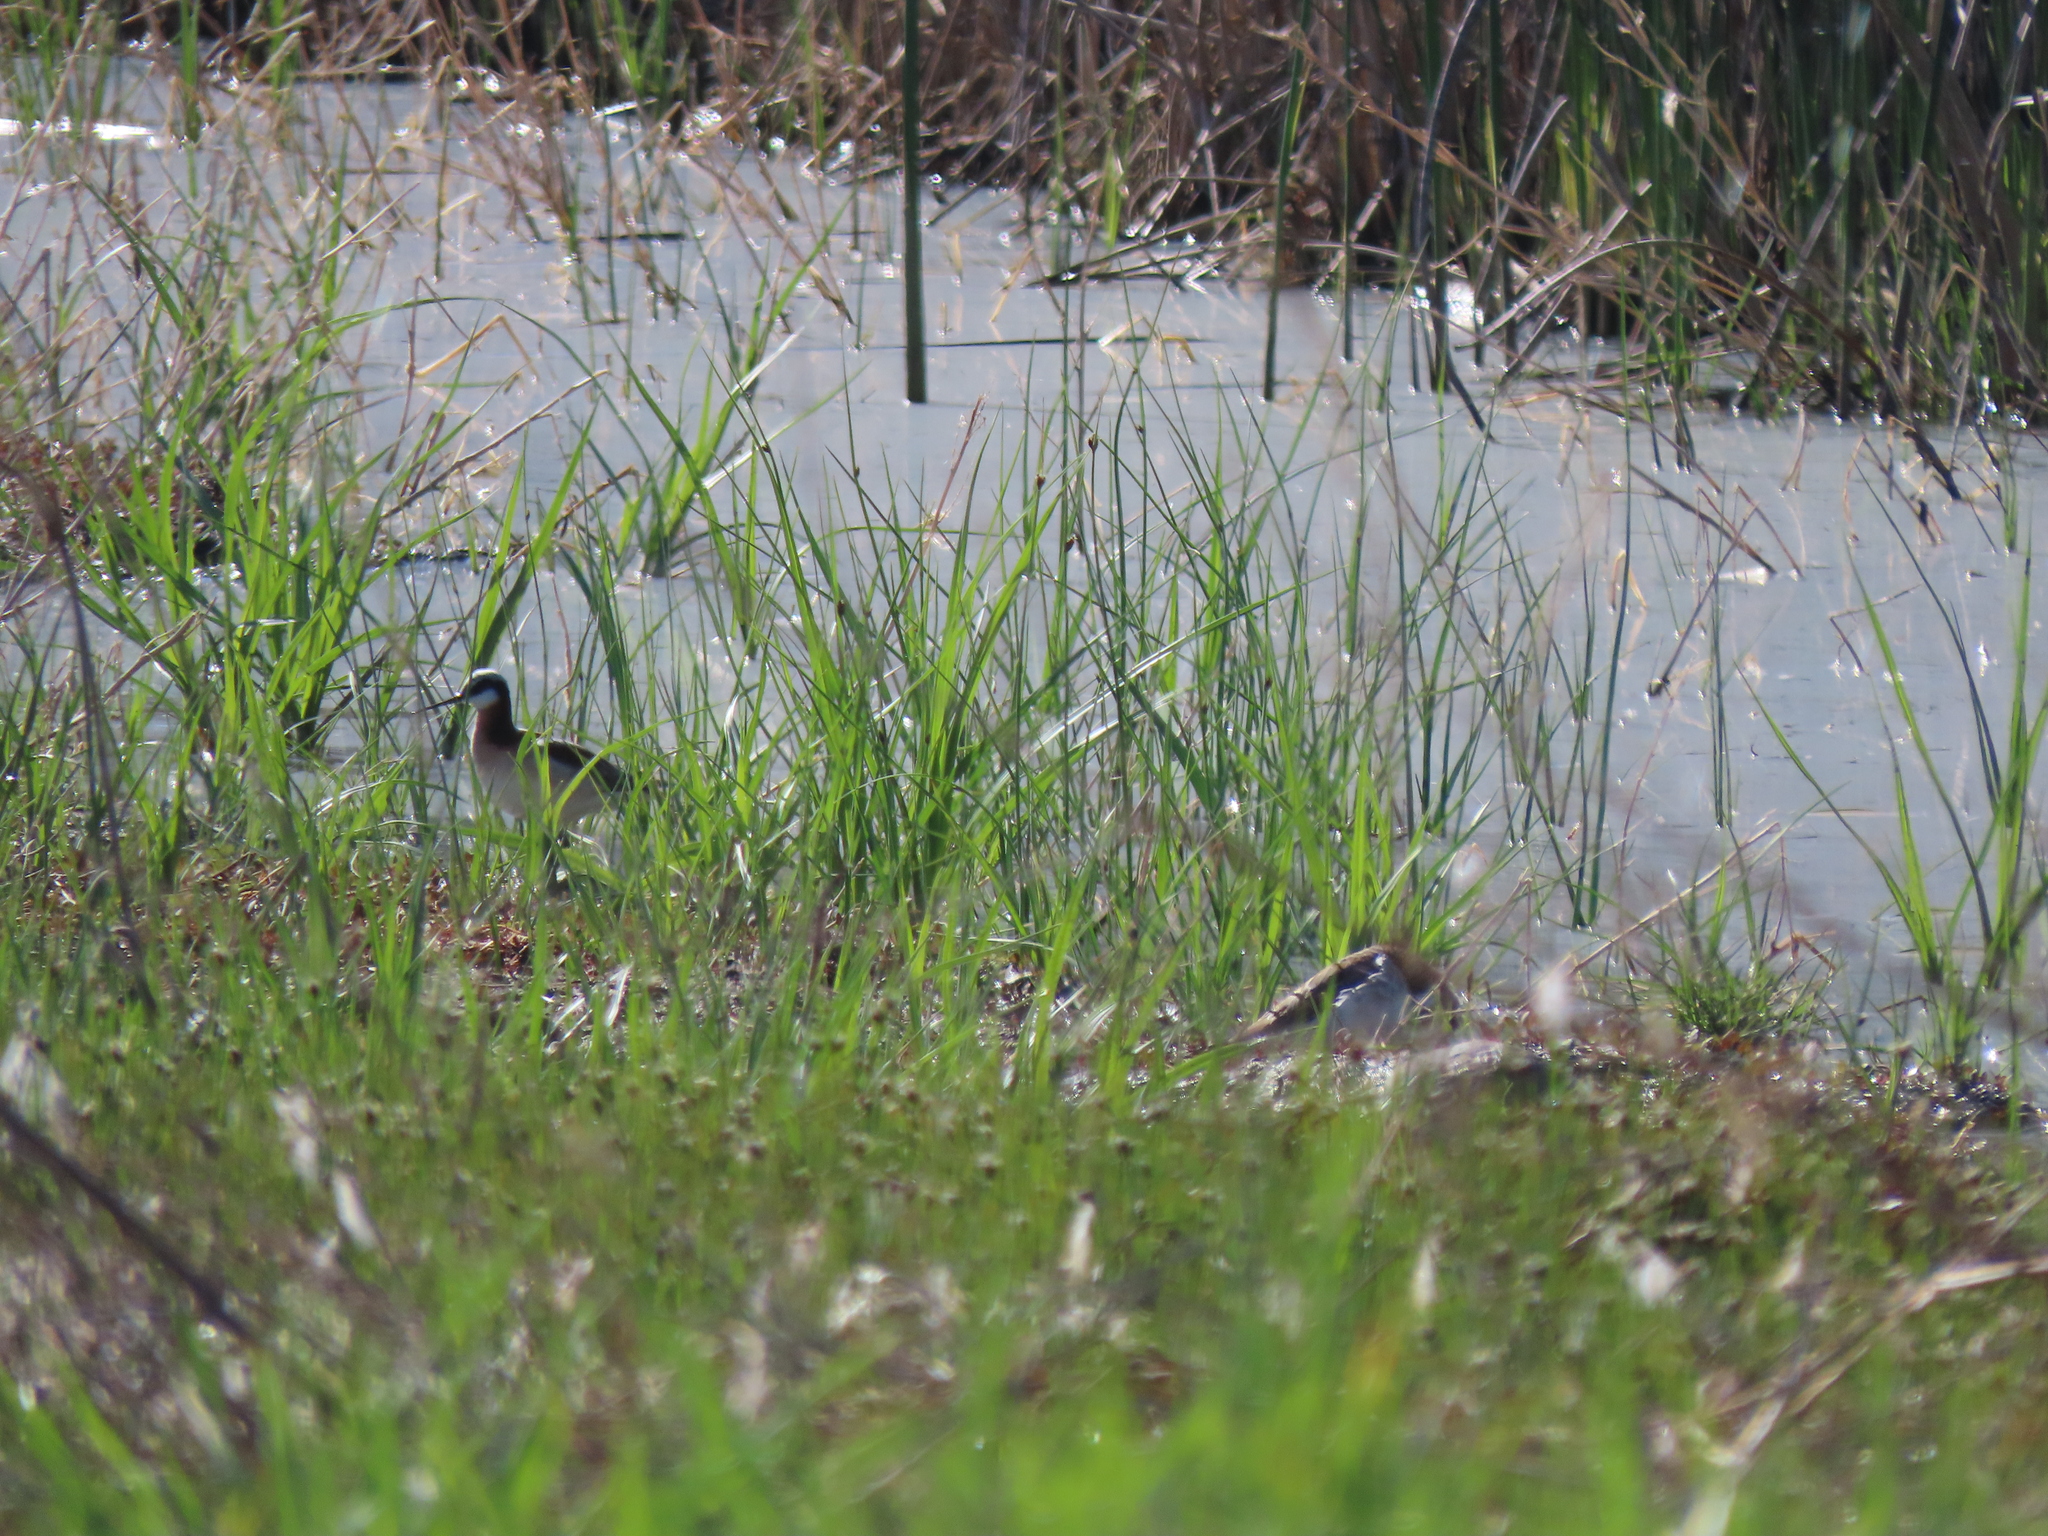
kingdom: Animalia
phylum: Chordata
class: Aves
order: Charadriiformes
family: Scolopacidae
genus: Phalaropus
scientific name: Phalaropus tricolor
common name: Wilson's phalarope
